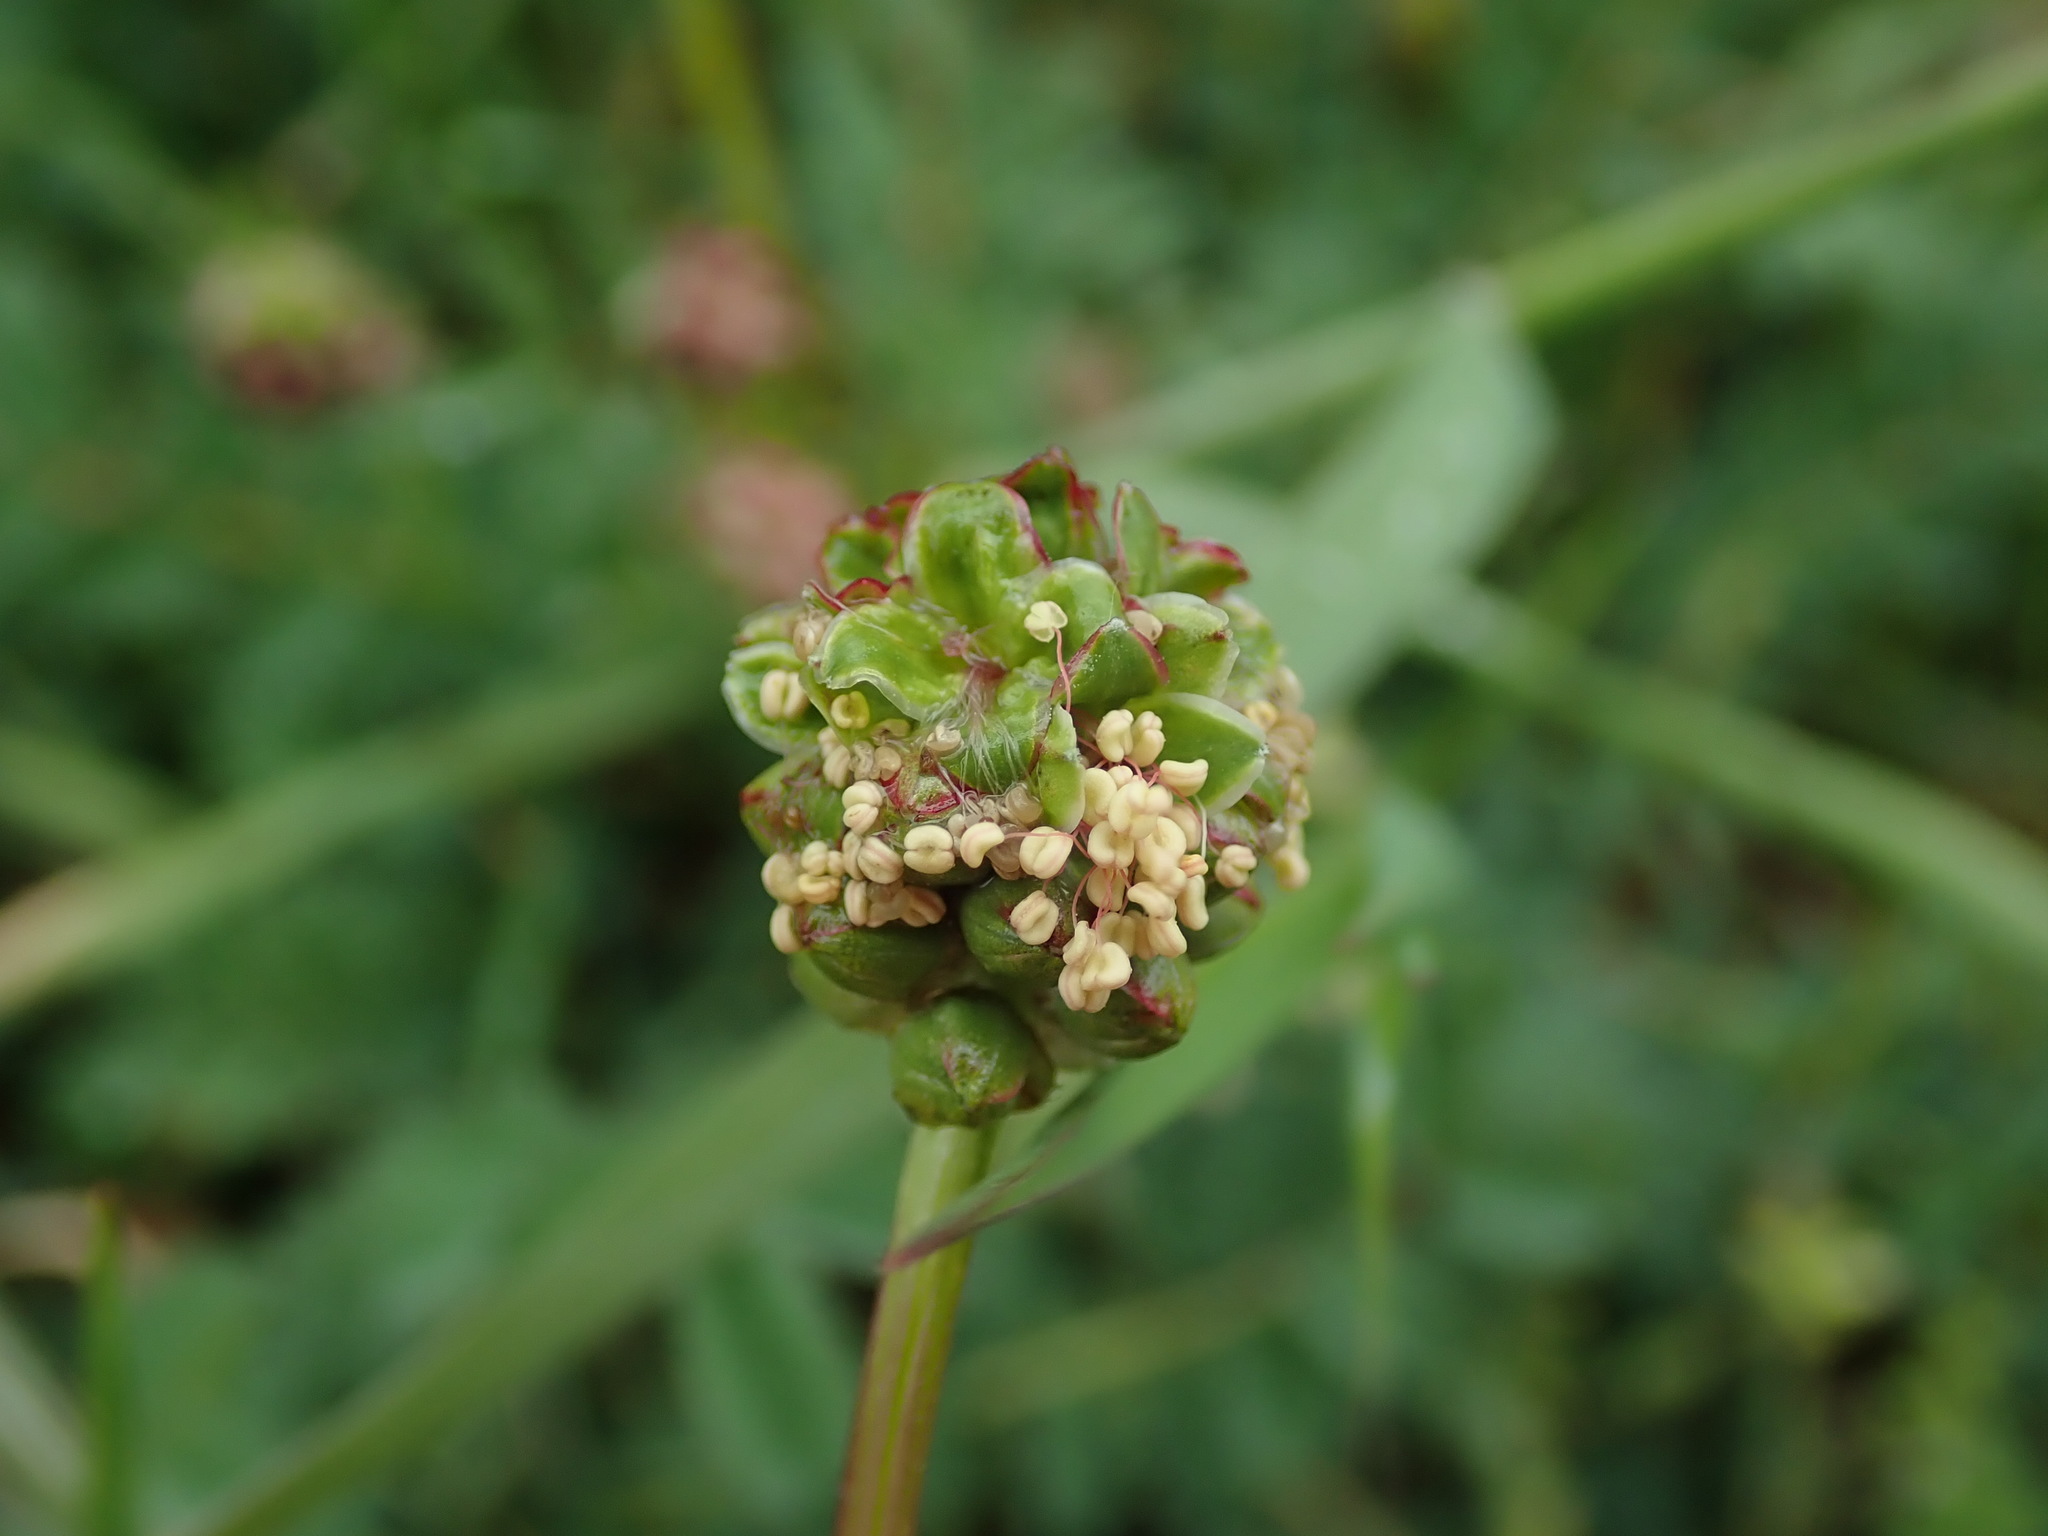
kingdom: Plantae
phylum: Tracheophyta
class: Magnoliopsida
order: Rosales
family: Rosaceae
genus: Poterium
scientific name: Poterium sanguisorba
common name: Salad burnet
